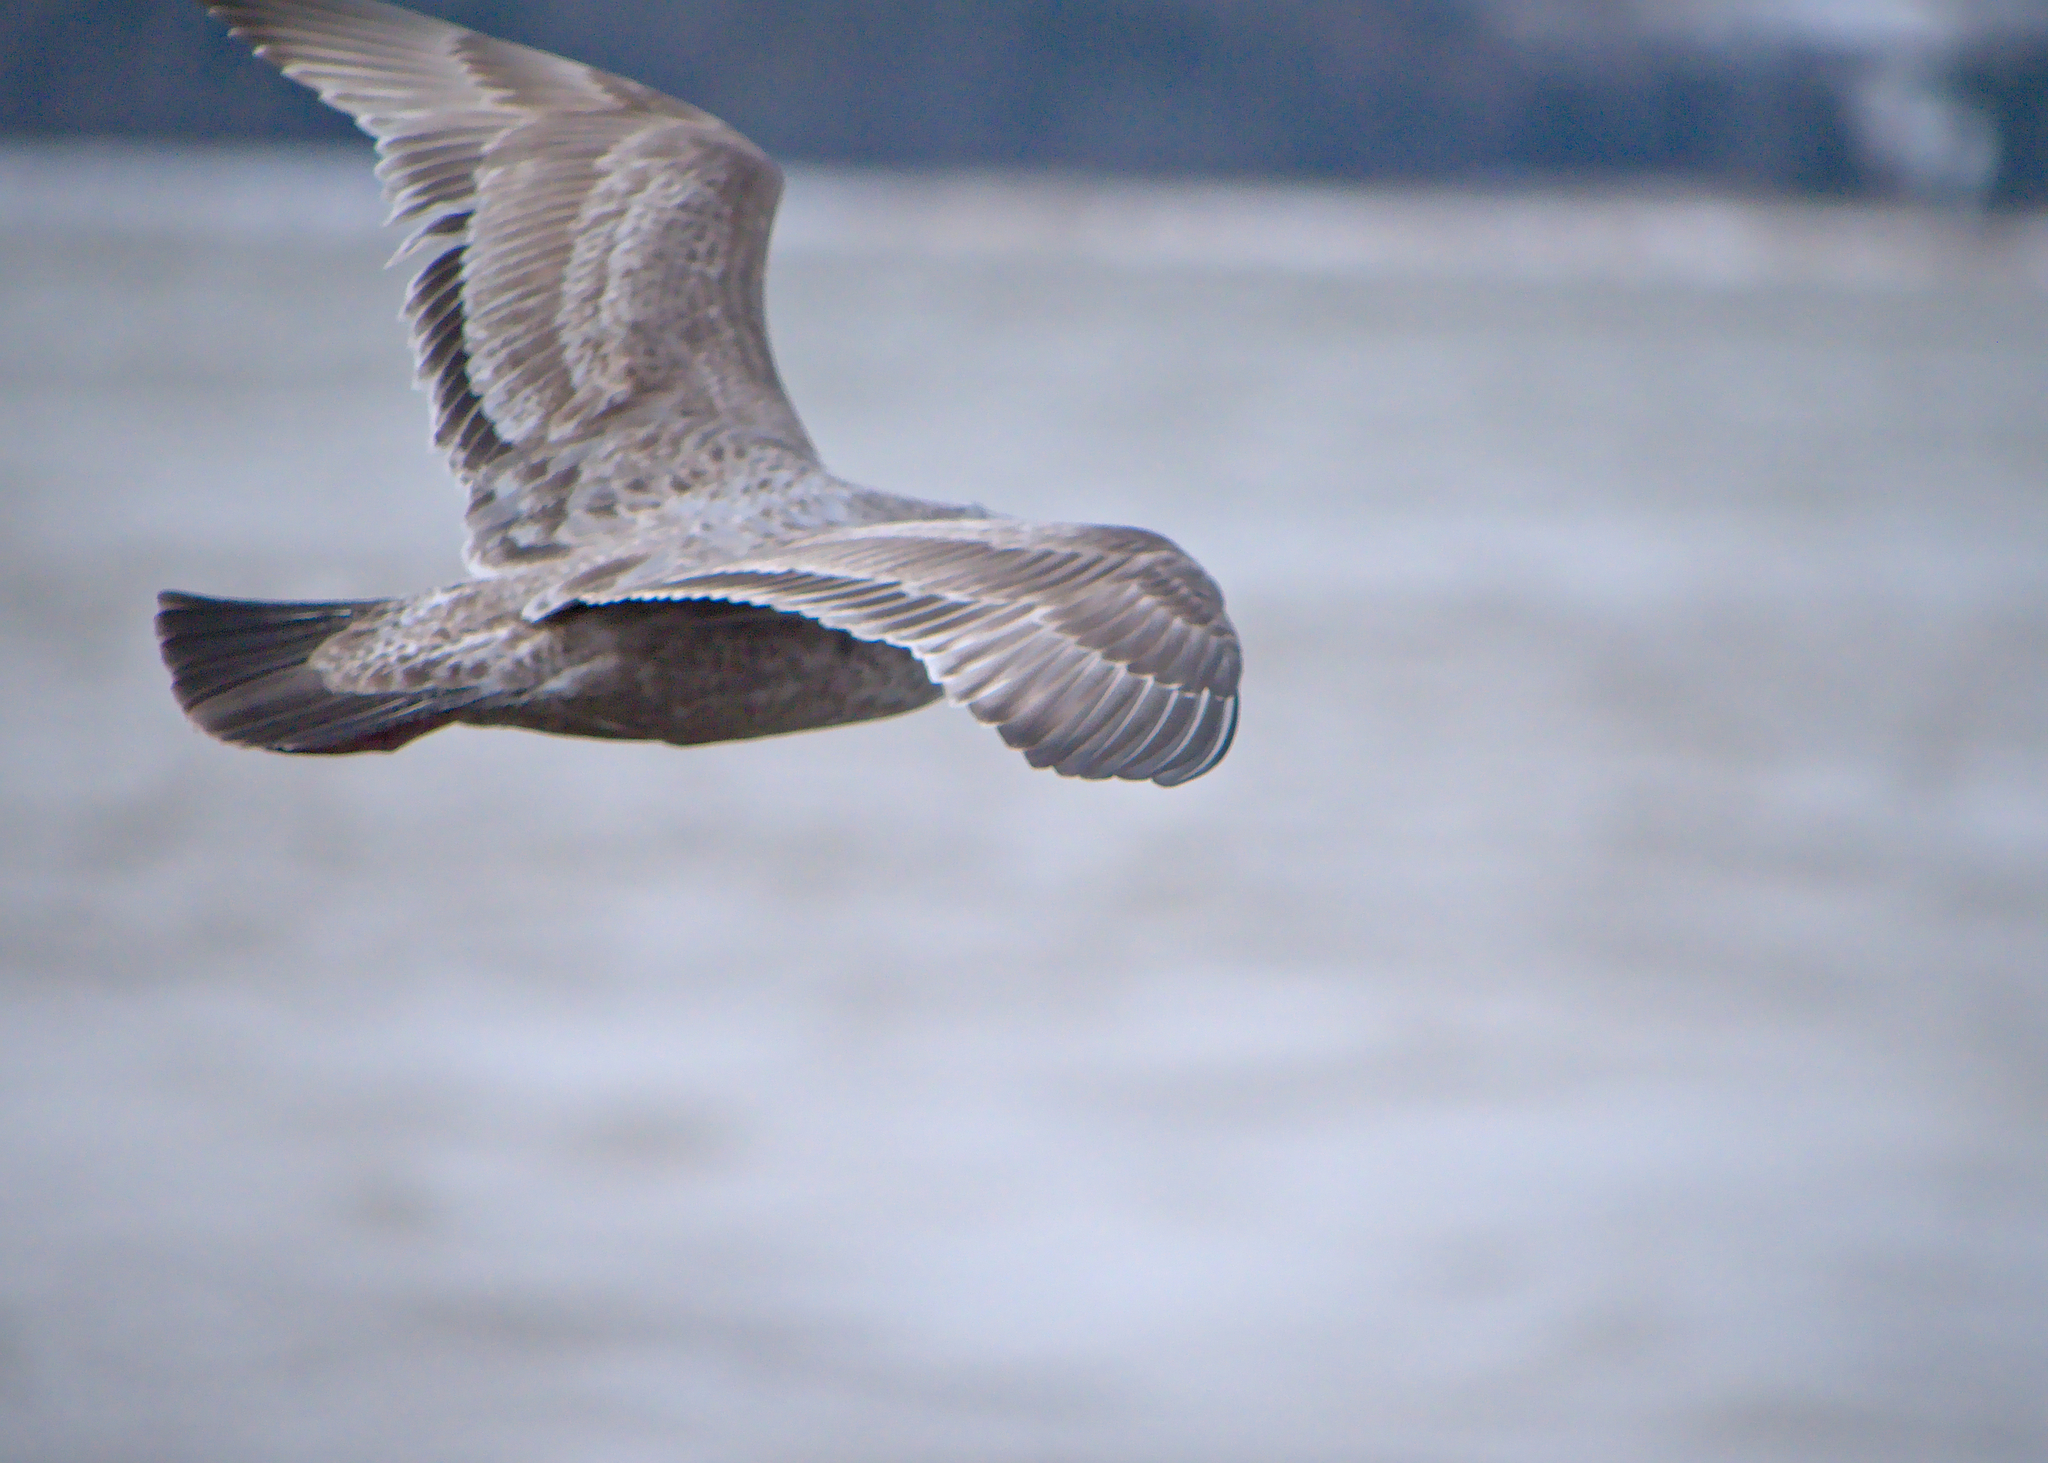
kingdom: Animalia
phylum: Chordata
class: Aves
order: Charadriiformes
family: Laridae
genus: Larus
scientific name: Larus argentatus
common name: Herring gull
